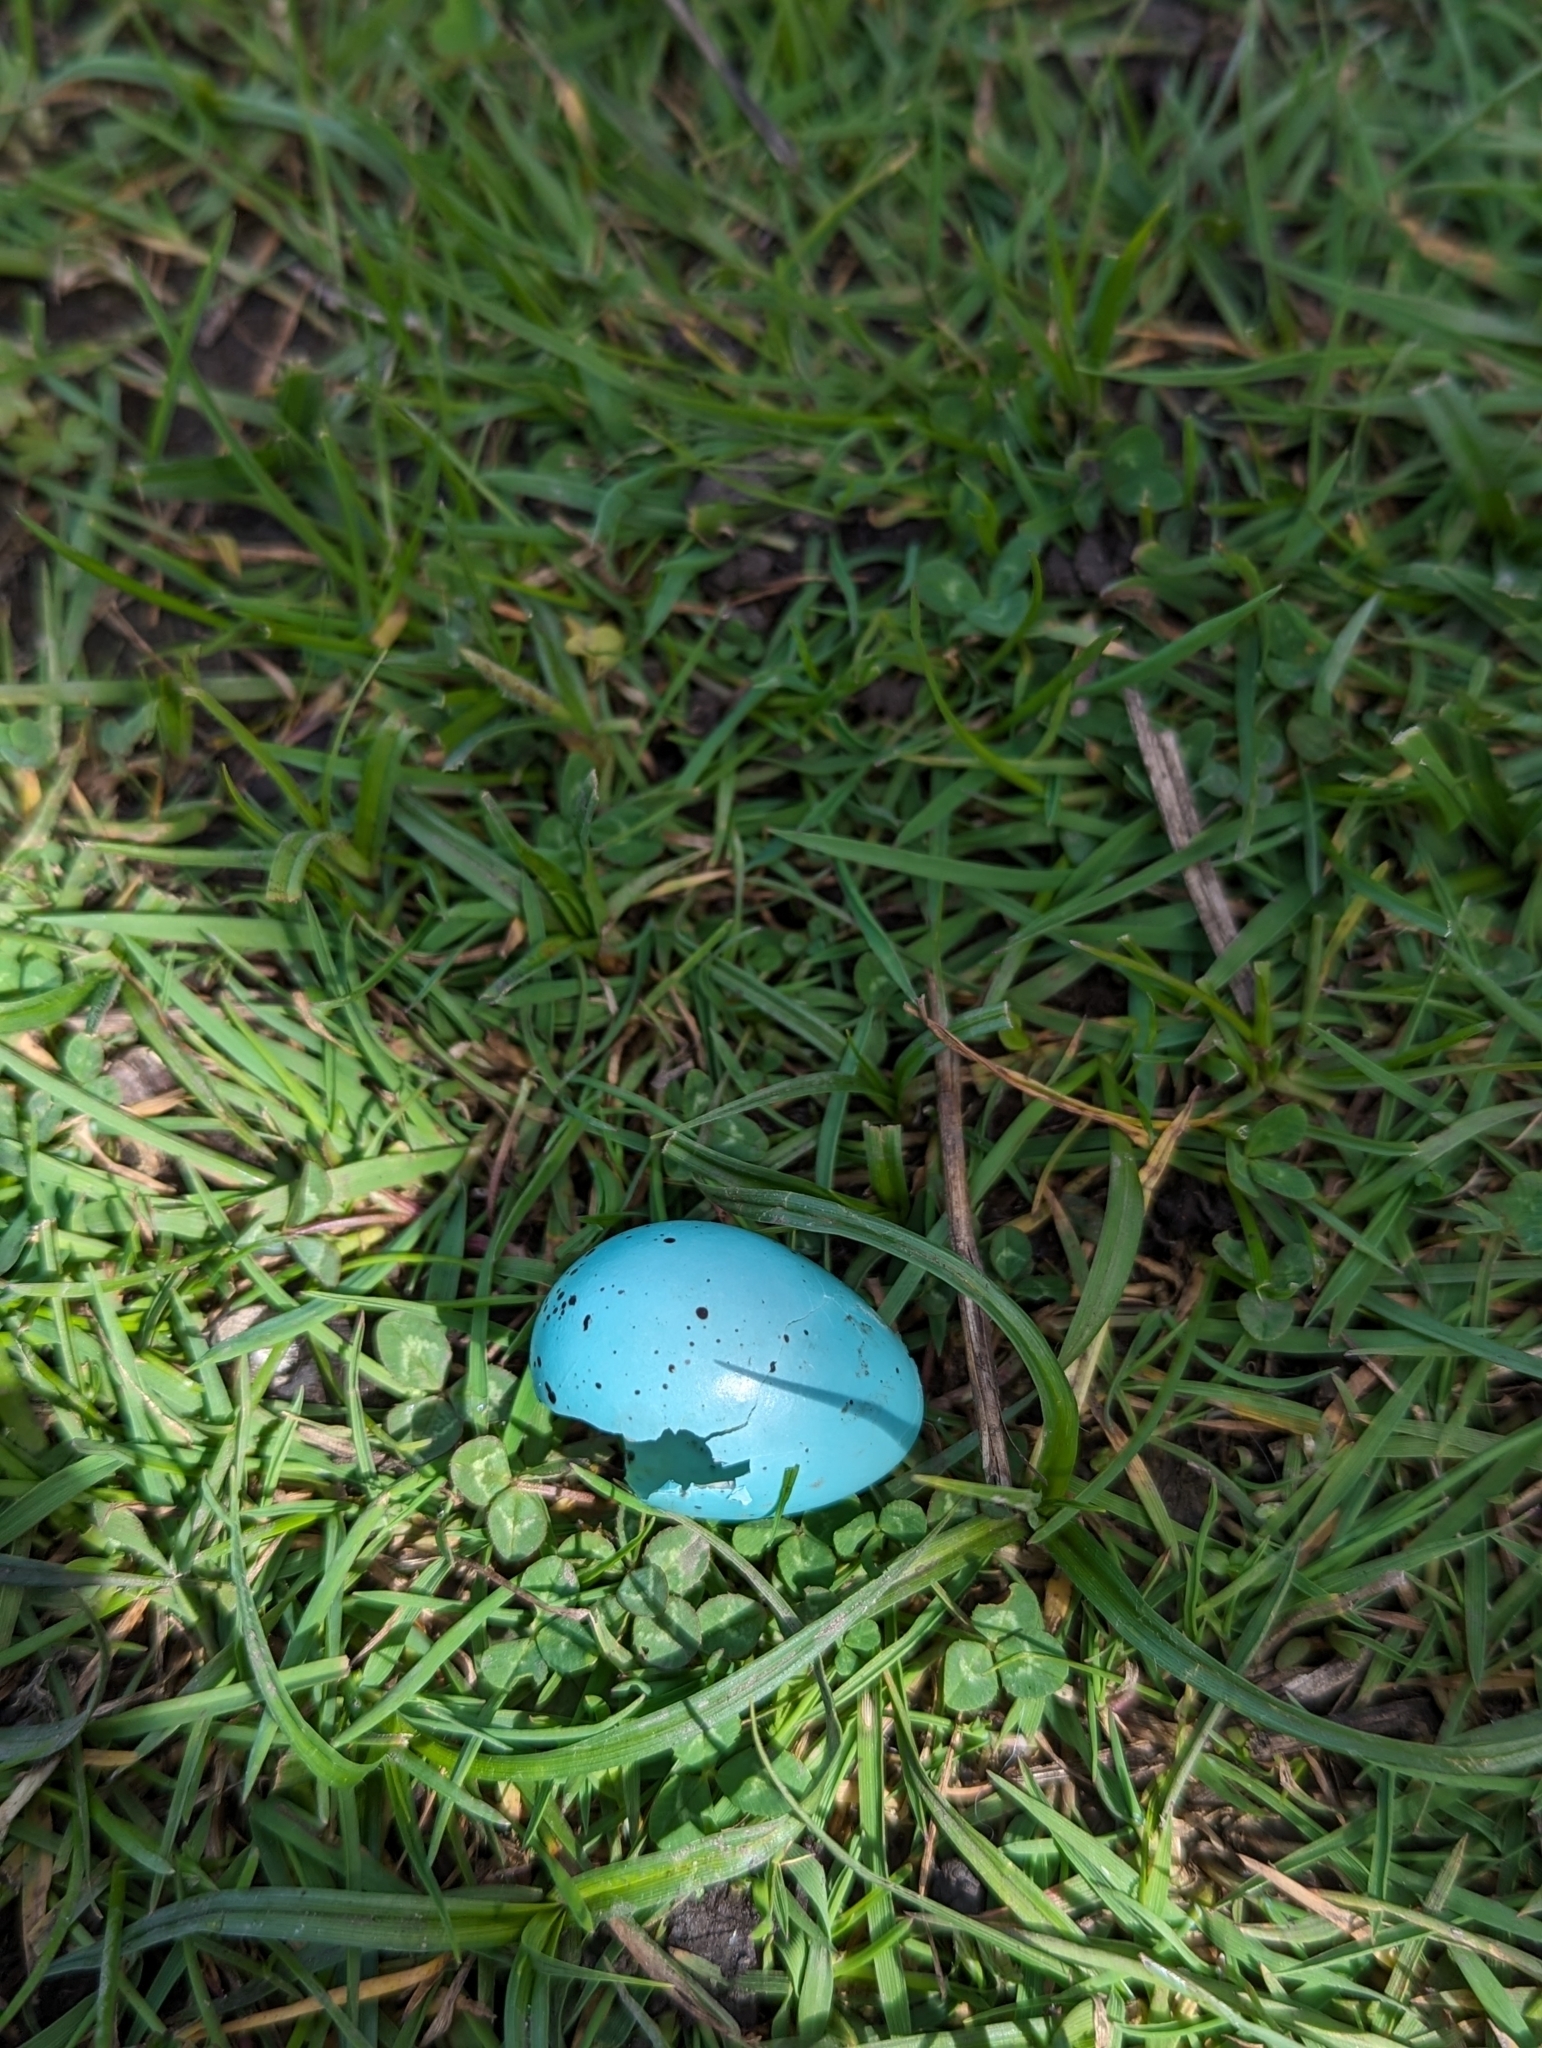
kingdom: Animalia
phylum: Chordata
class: Aves
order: Passeriformes
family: Turdidae
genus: Turdus
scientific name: Turdus philomelos
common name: Song thrush
